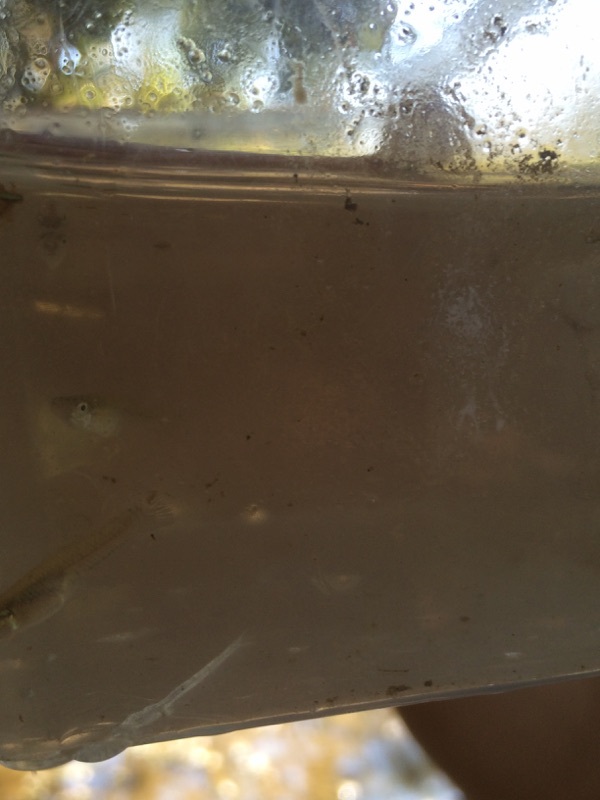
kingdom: Animalia
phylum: Chordata
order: Cyprinodontiformes
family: Poeciliidae
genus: Gambusia
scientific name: Gambusia affinis
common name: Mosquitofish
